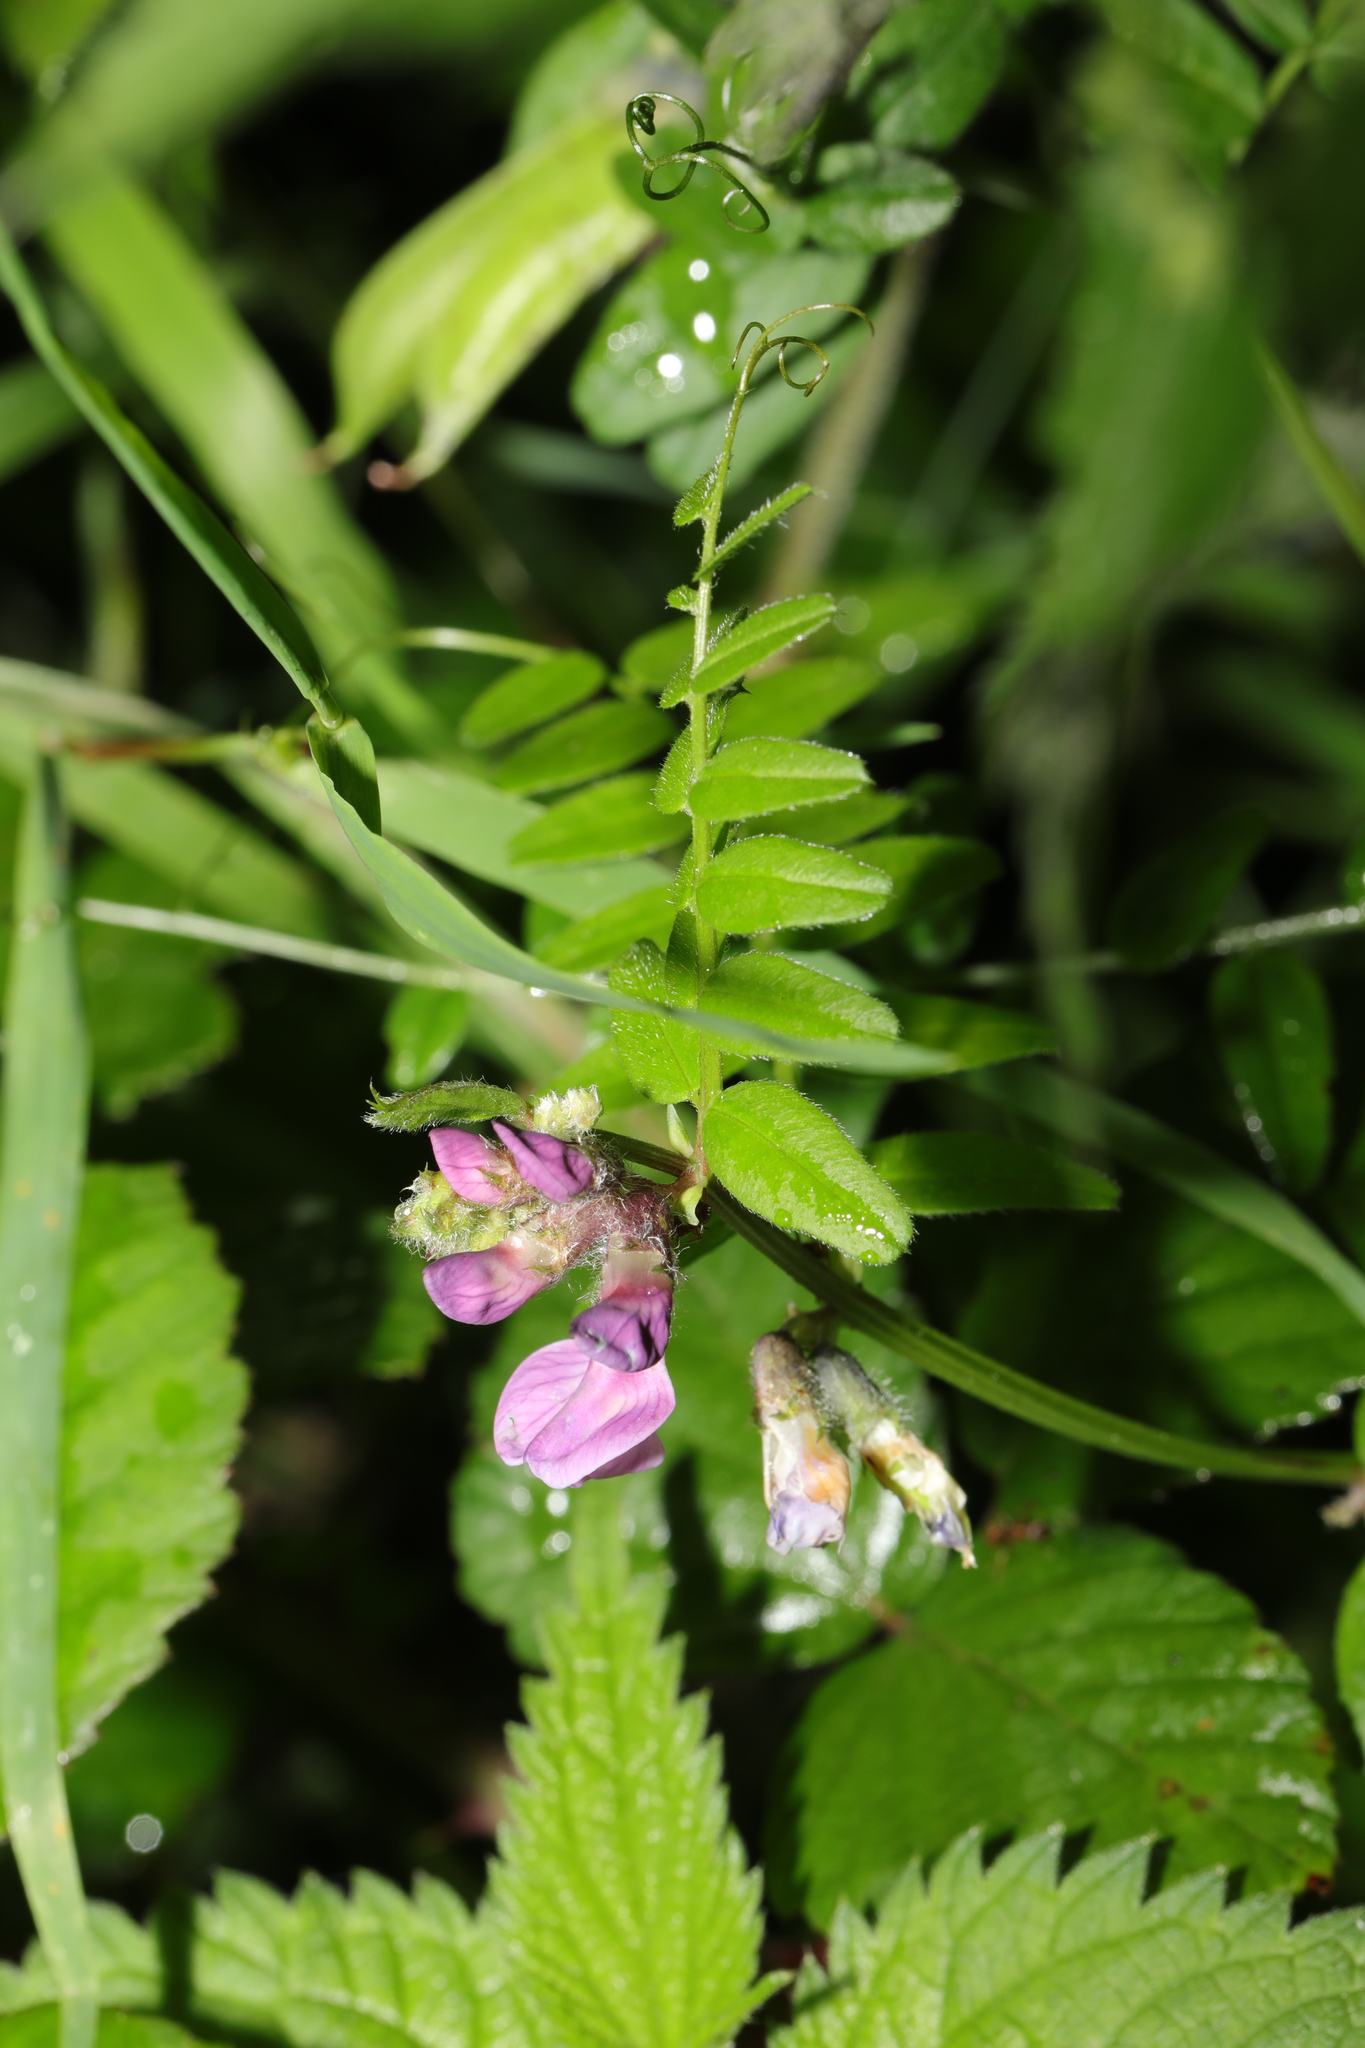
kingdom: Plantae
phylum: Tracheophyta
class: Magnoliopsida
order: Fabales
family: Fabaceae
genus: Vicia
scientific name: Vicia sepium
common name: Bush vetch
